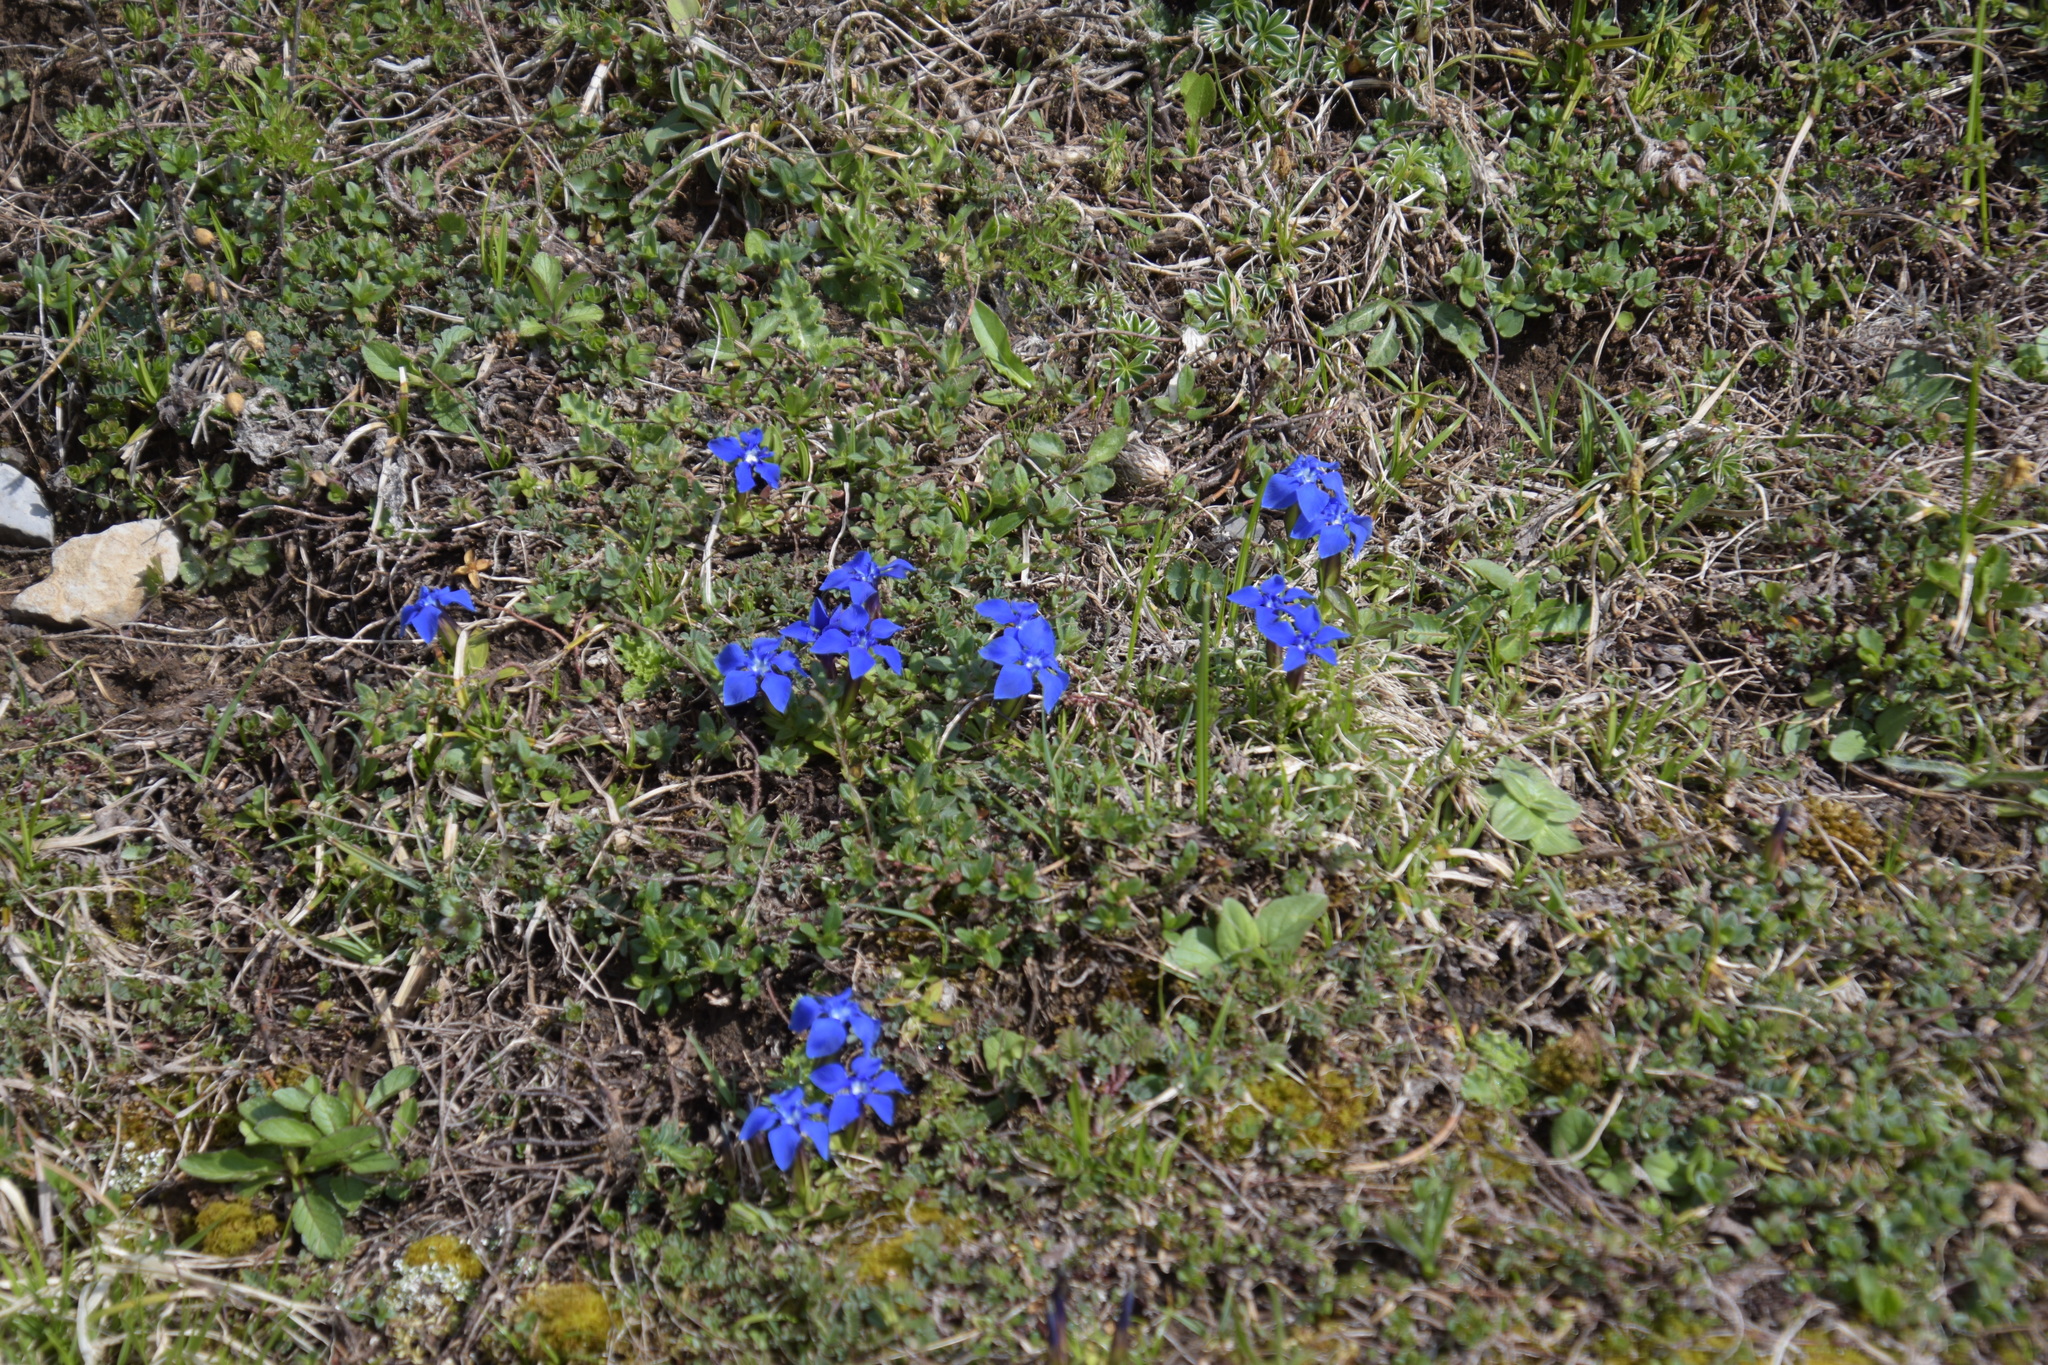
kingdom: Plantae
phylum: Tracheophyta
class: Magnoliopsida
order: Gentianales
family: Gentianaceae
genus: Gentiana
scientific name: Gentiana verna
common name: Spring gentian
